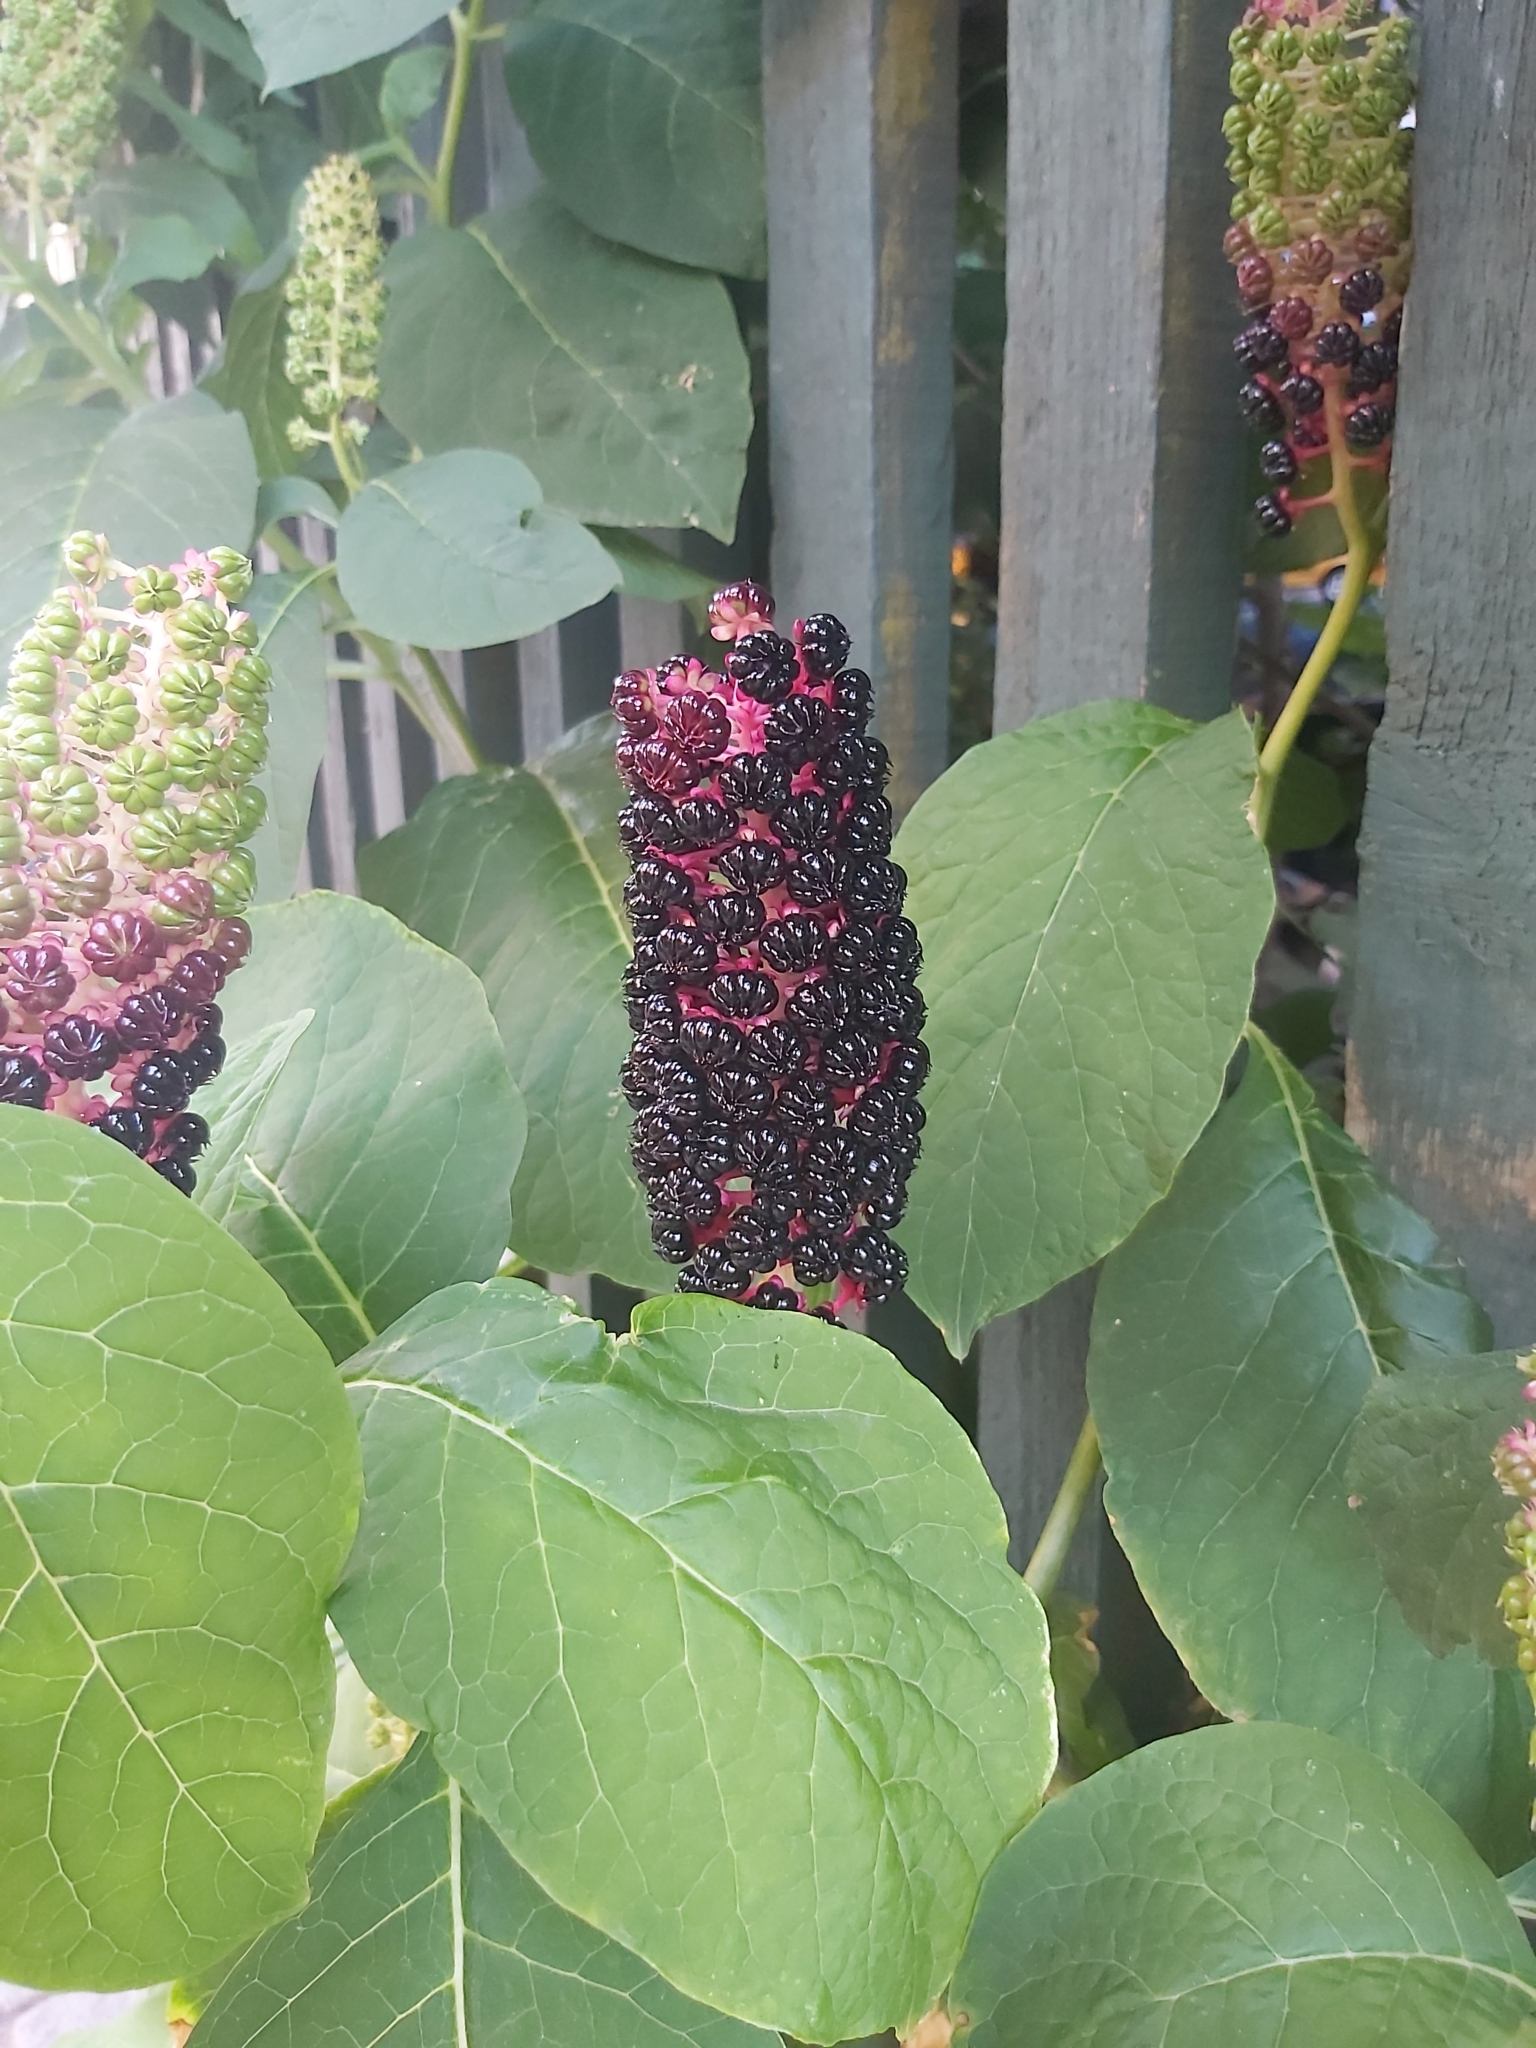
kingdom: Plantae
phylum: Tracheophyta
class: Magnoliopsida
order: Caryophyllales
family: Phytolaccaceae
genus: Phytolacca
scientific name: Phytolacca acinosa
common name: Indian pokeweed
